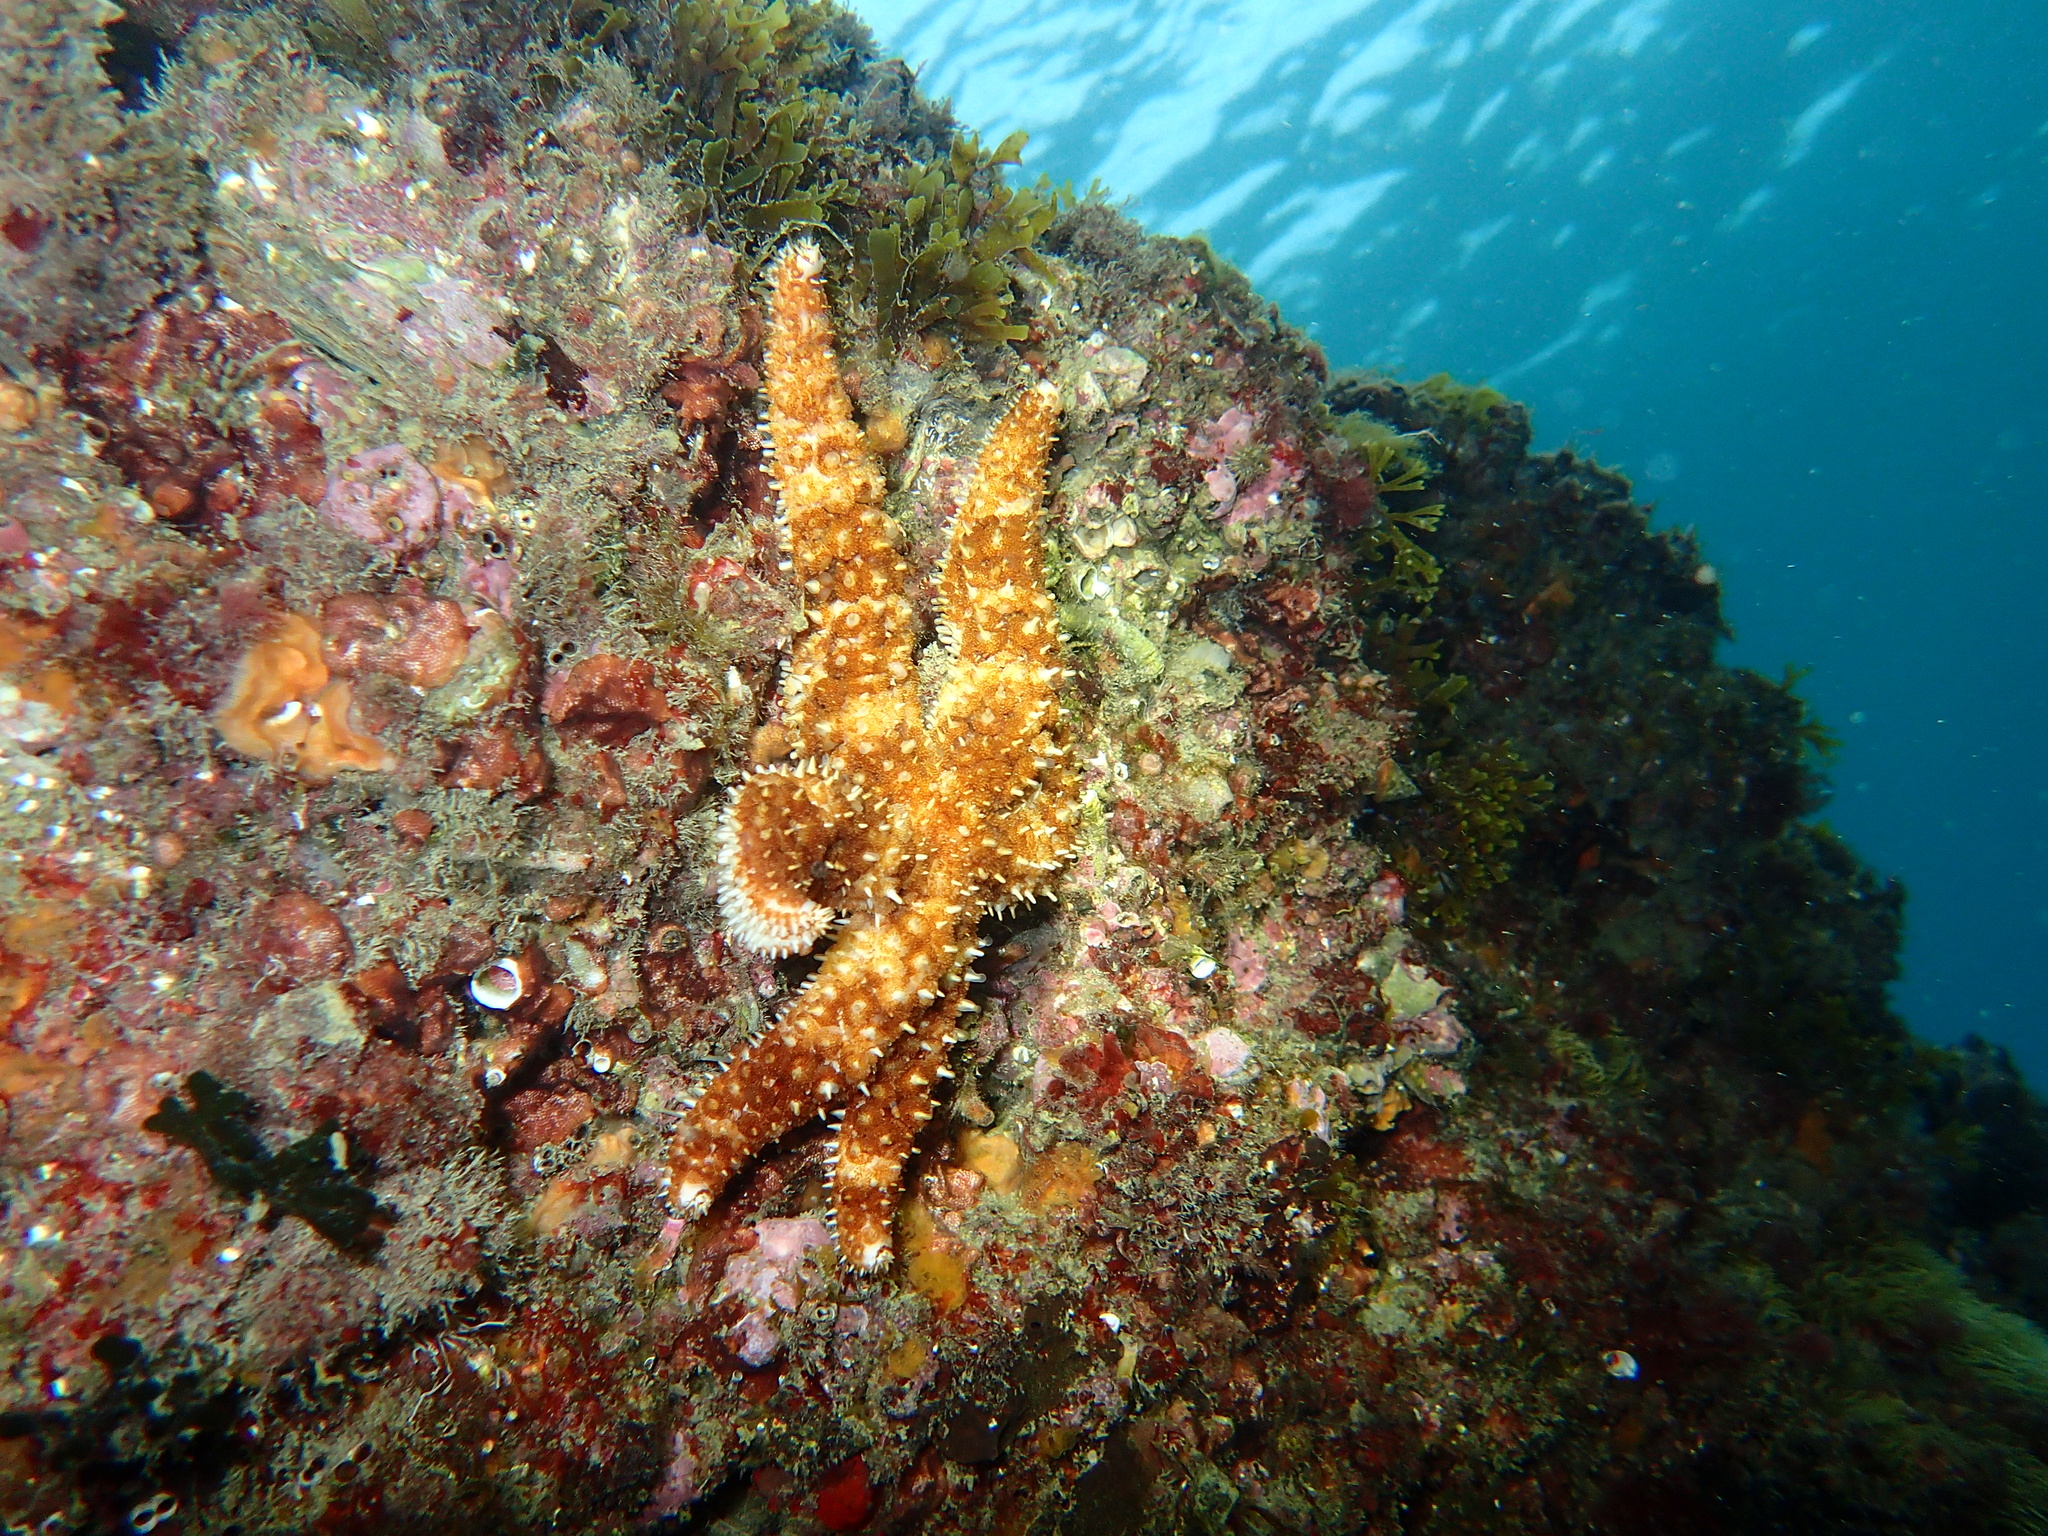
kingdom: Animalia
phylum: Echinodermata
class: Asteroidea
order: Forcipulatida
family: Asteriidae
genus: Coscinasterias
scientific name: Coscinasterias tenuispina
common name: Blue spiny starfish
